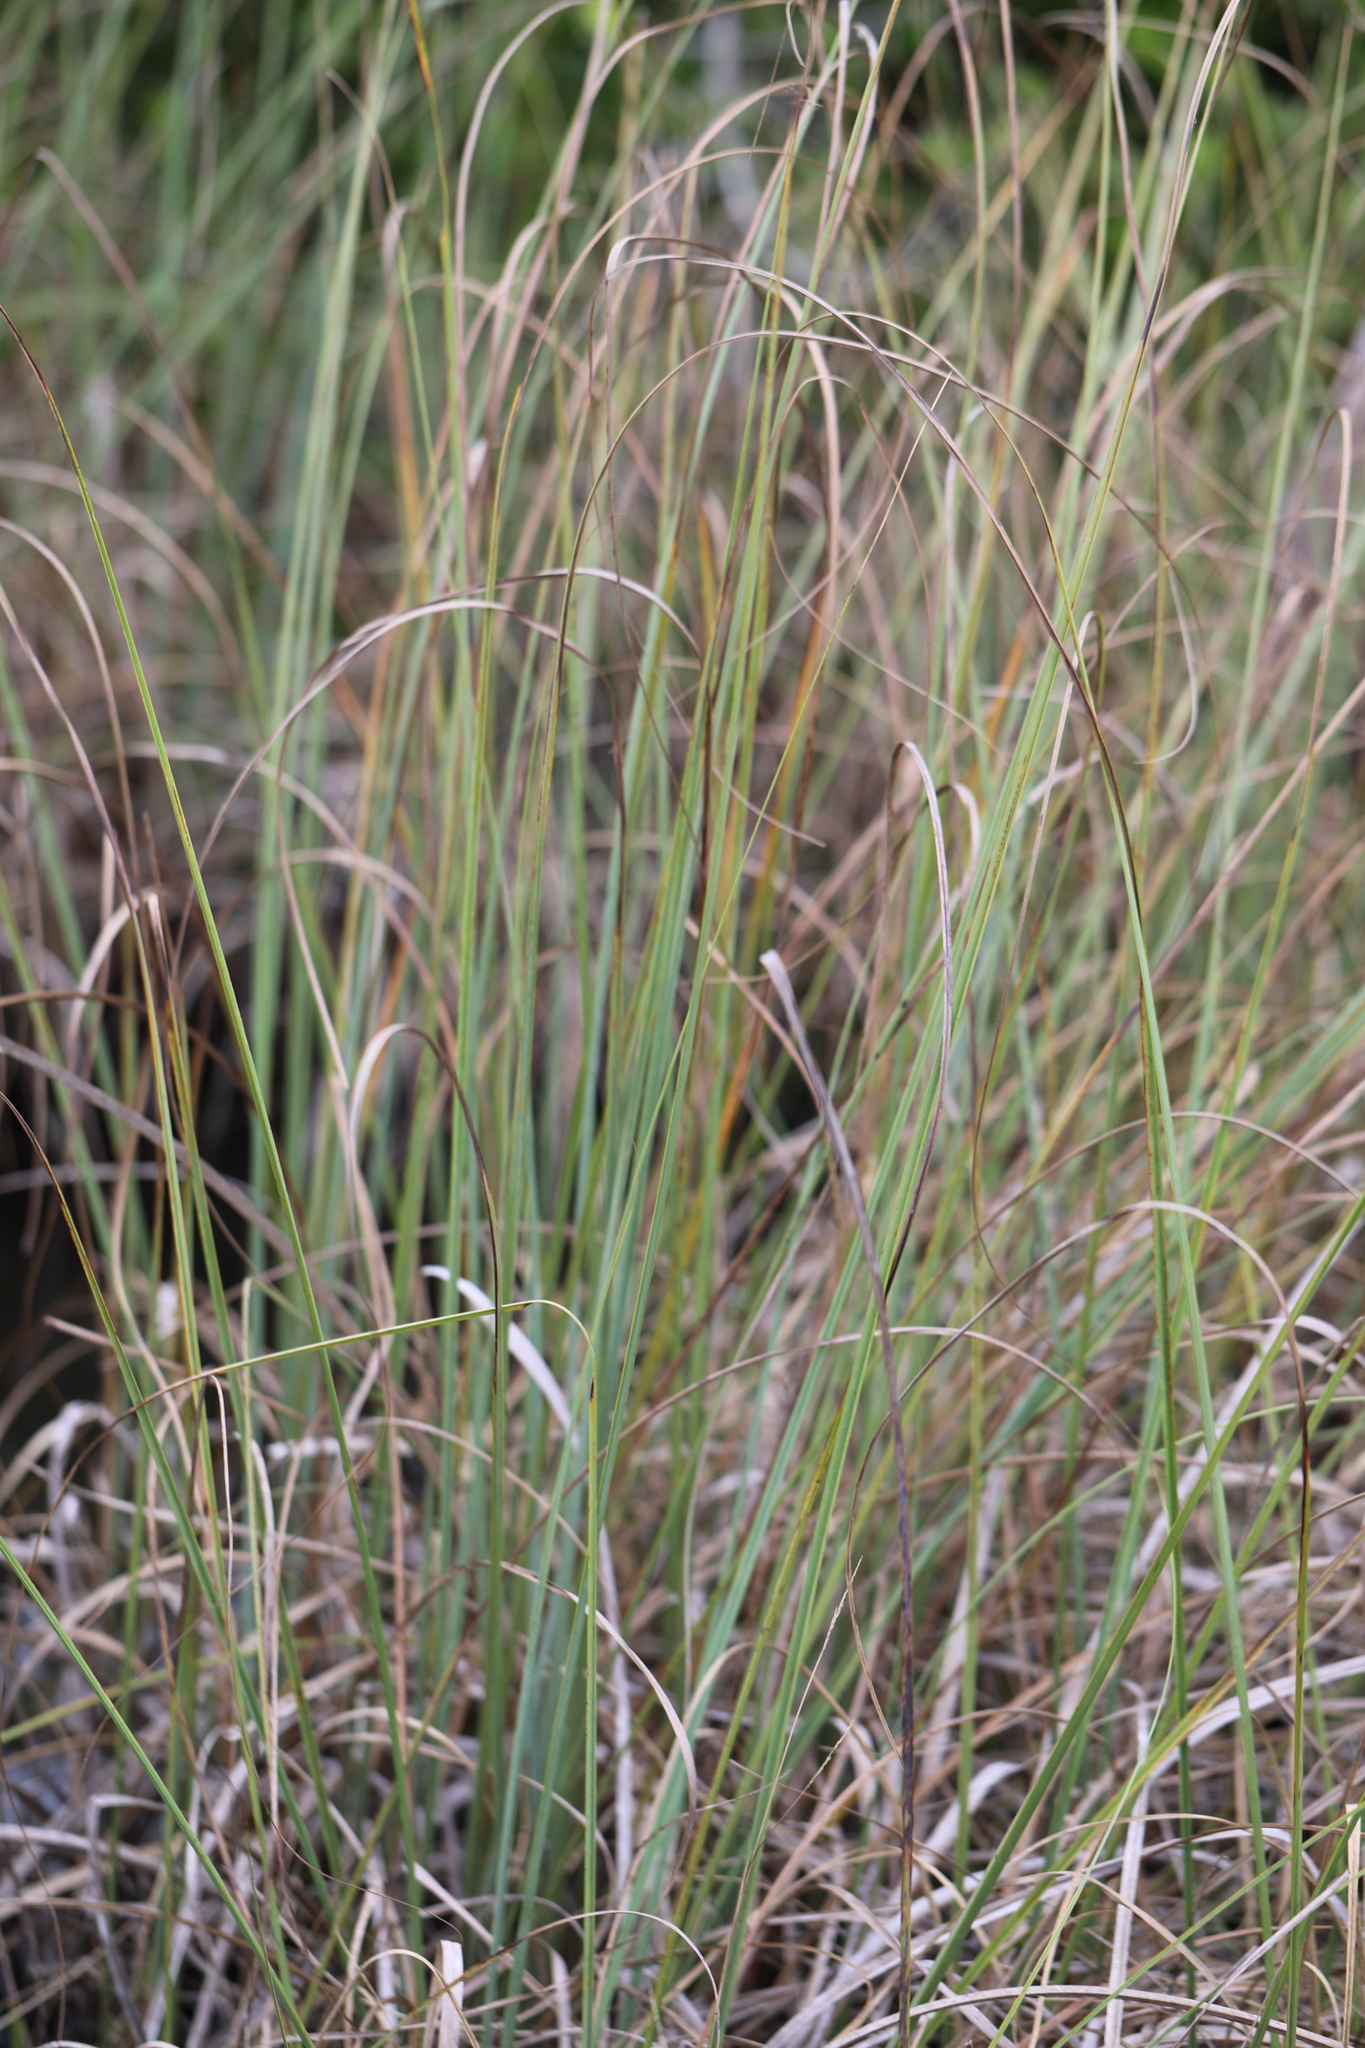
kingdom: Plantae
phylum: Tracheophyta
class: Liliopsida
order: Poales
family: Cyperaceae
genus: Cladium
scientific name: Cladium mariscus
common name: Great fen-sedge
